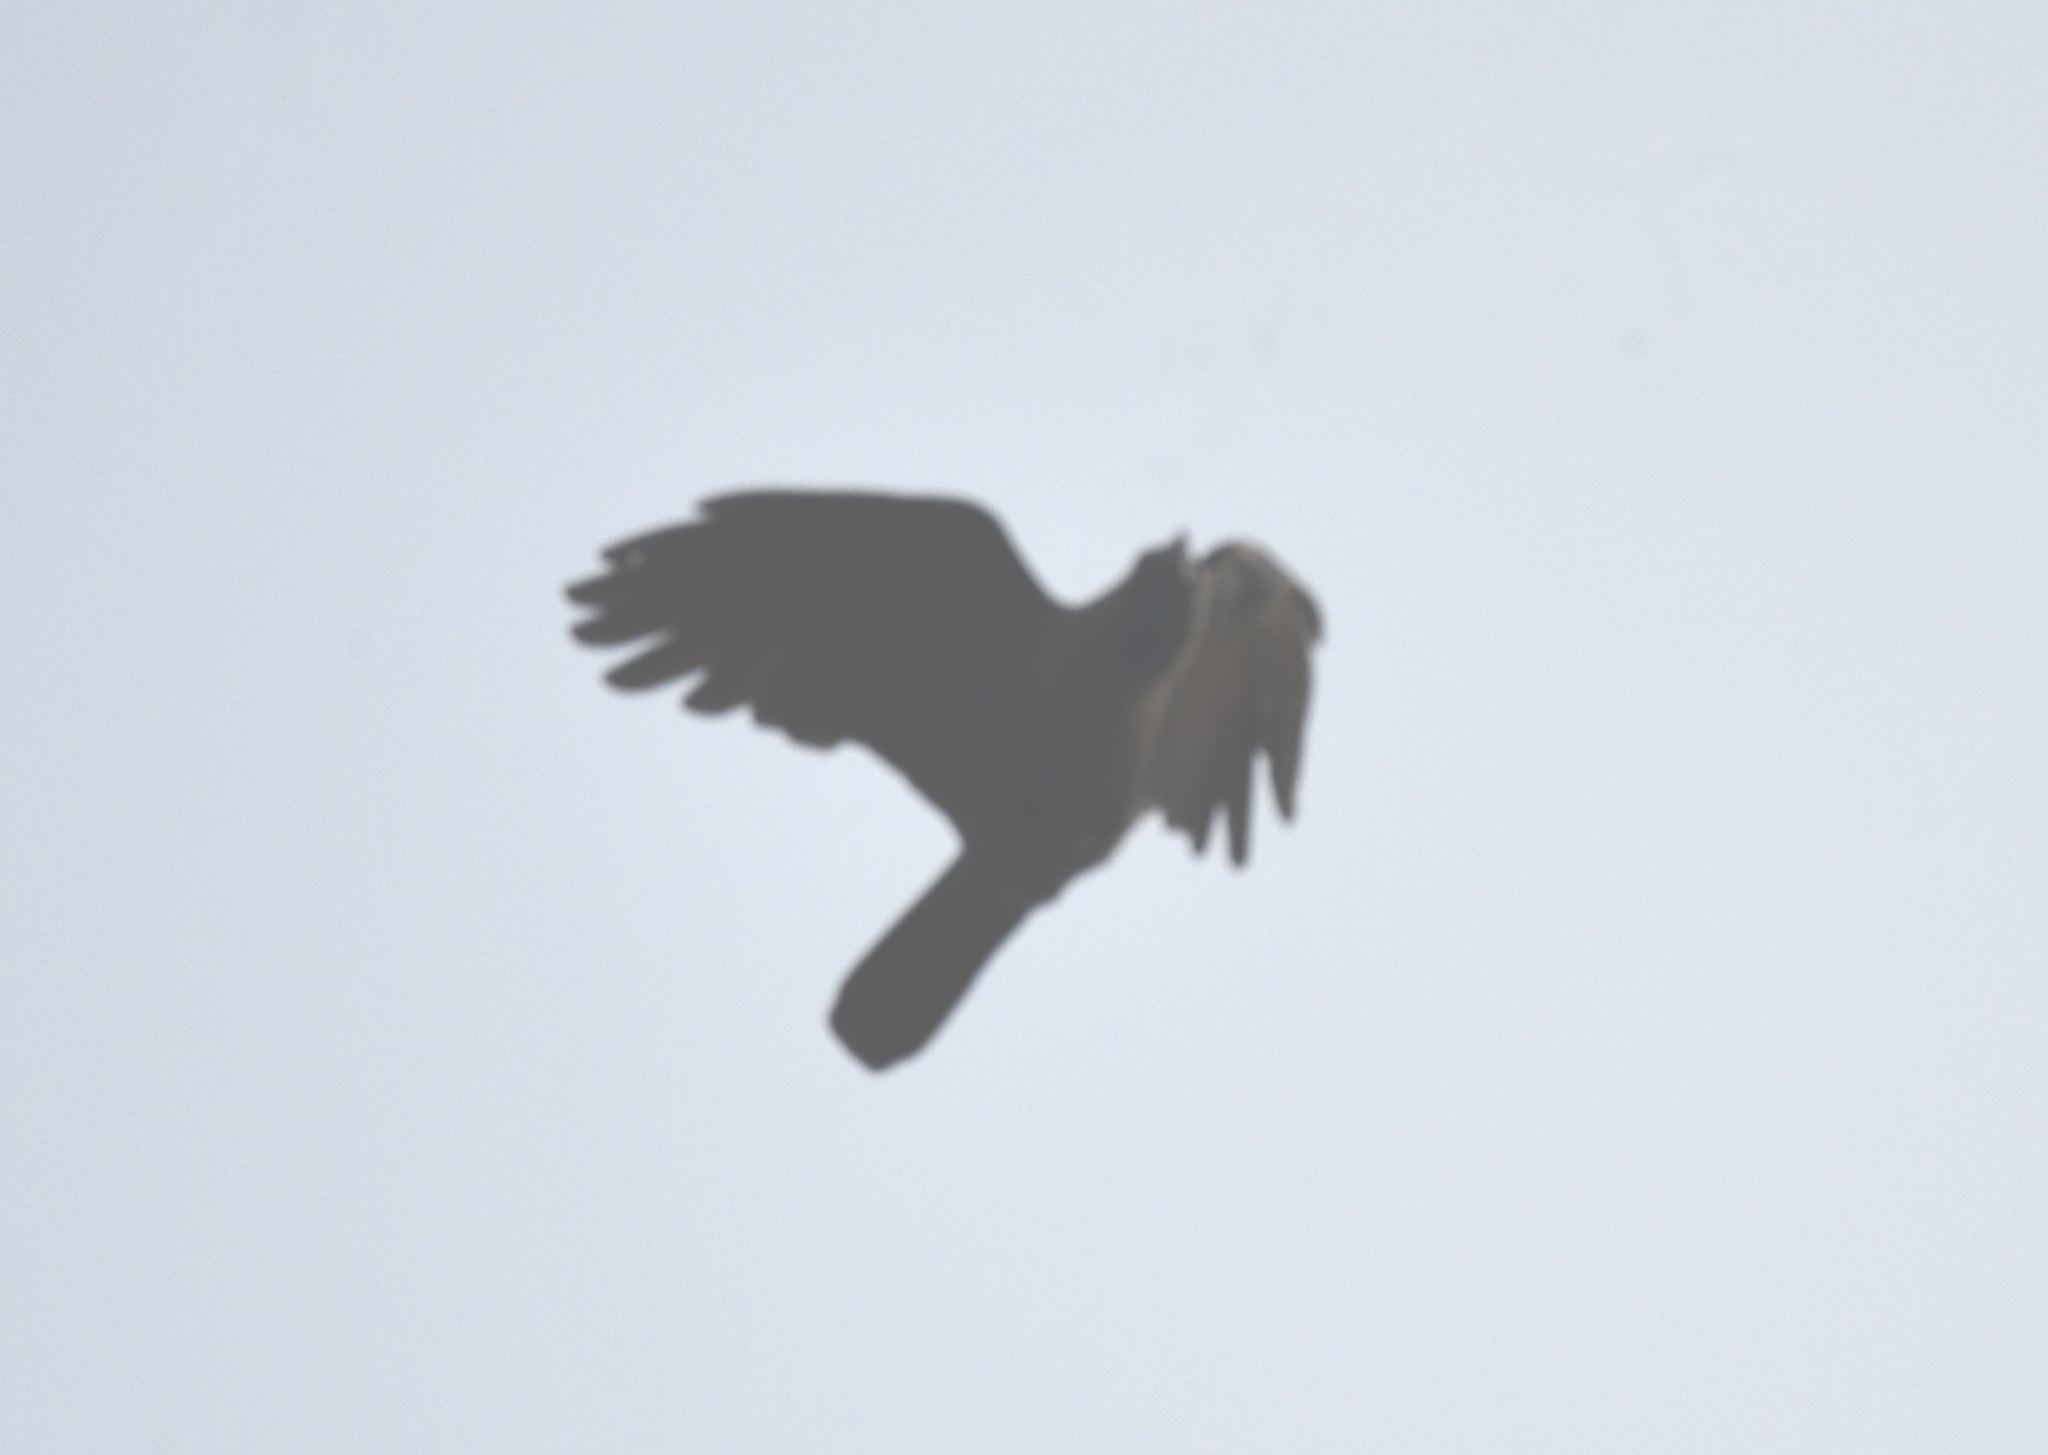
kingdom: Animalia
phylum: Chordata
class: Aves
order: Passeriformes
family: Corvidae
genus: Corvus
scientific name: Corvus splendens
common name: House crow
